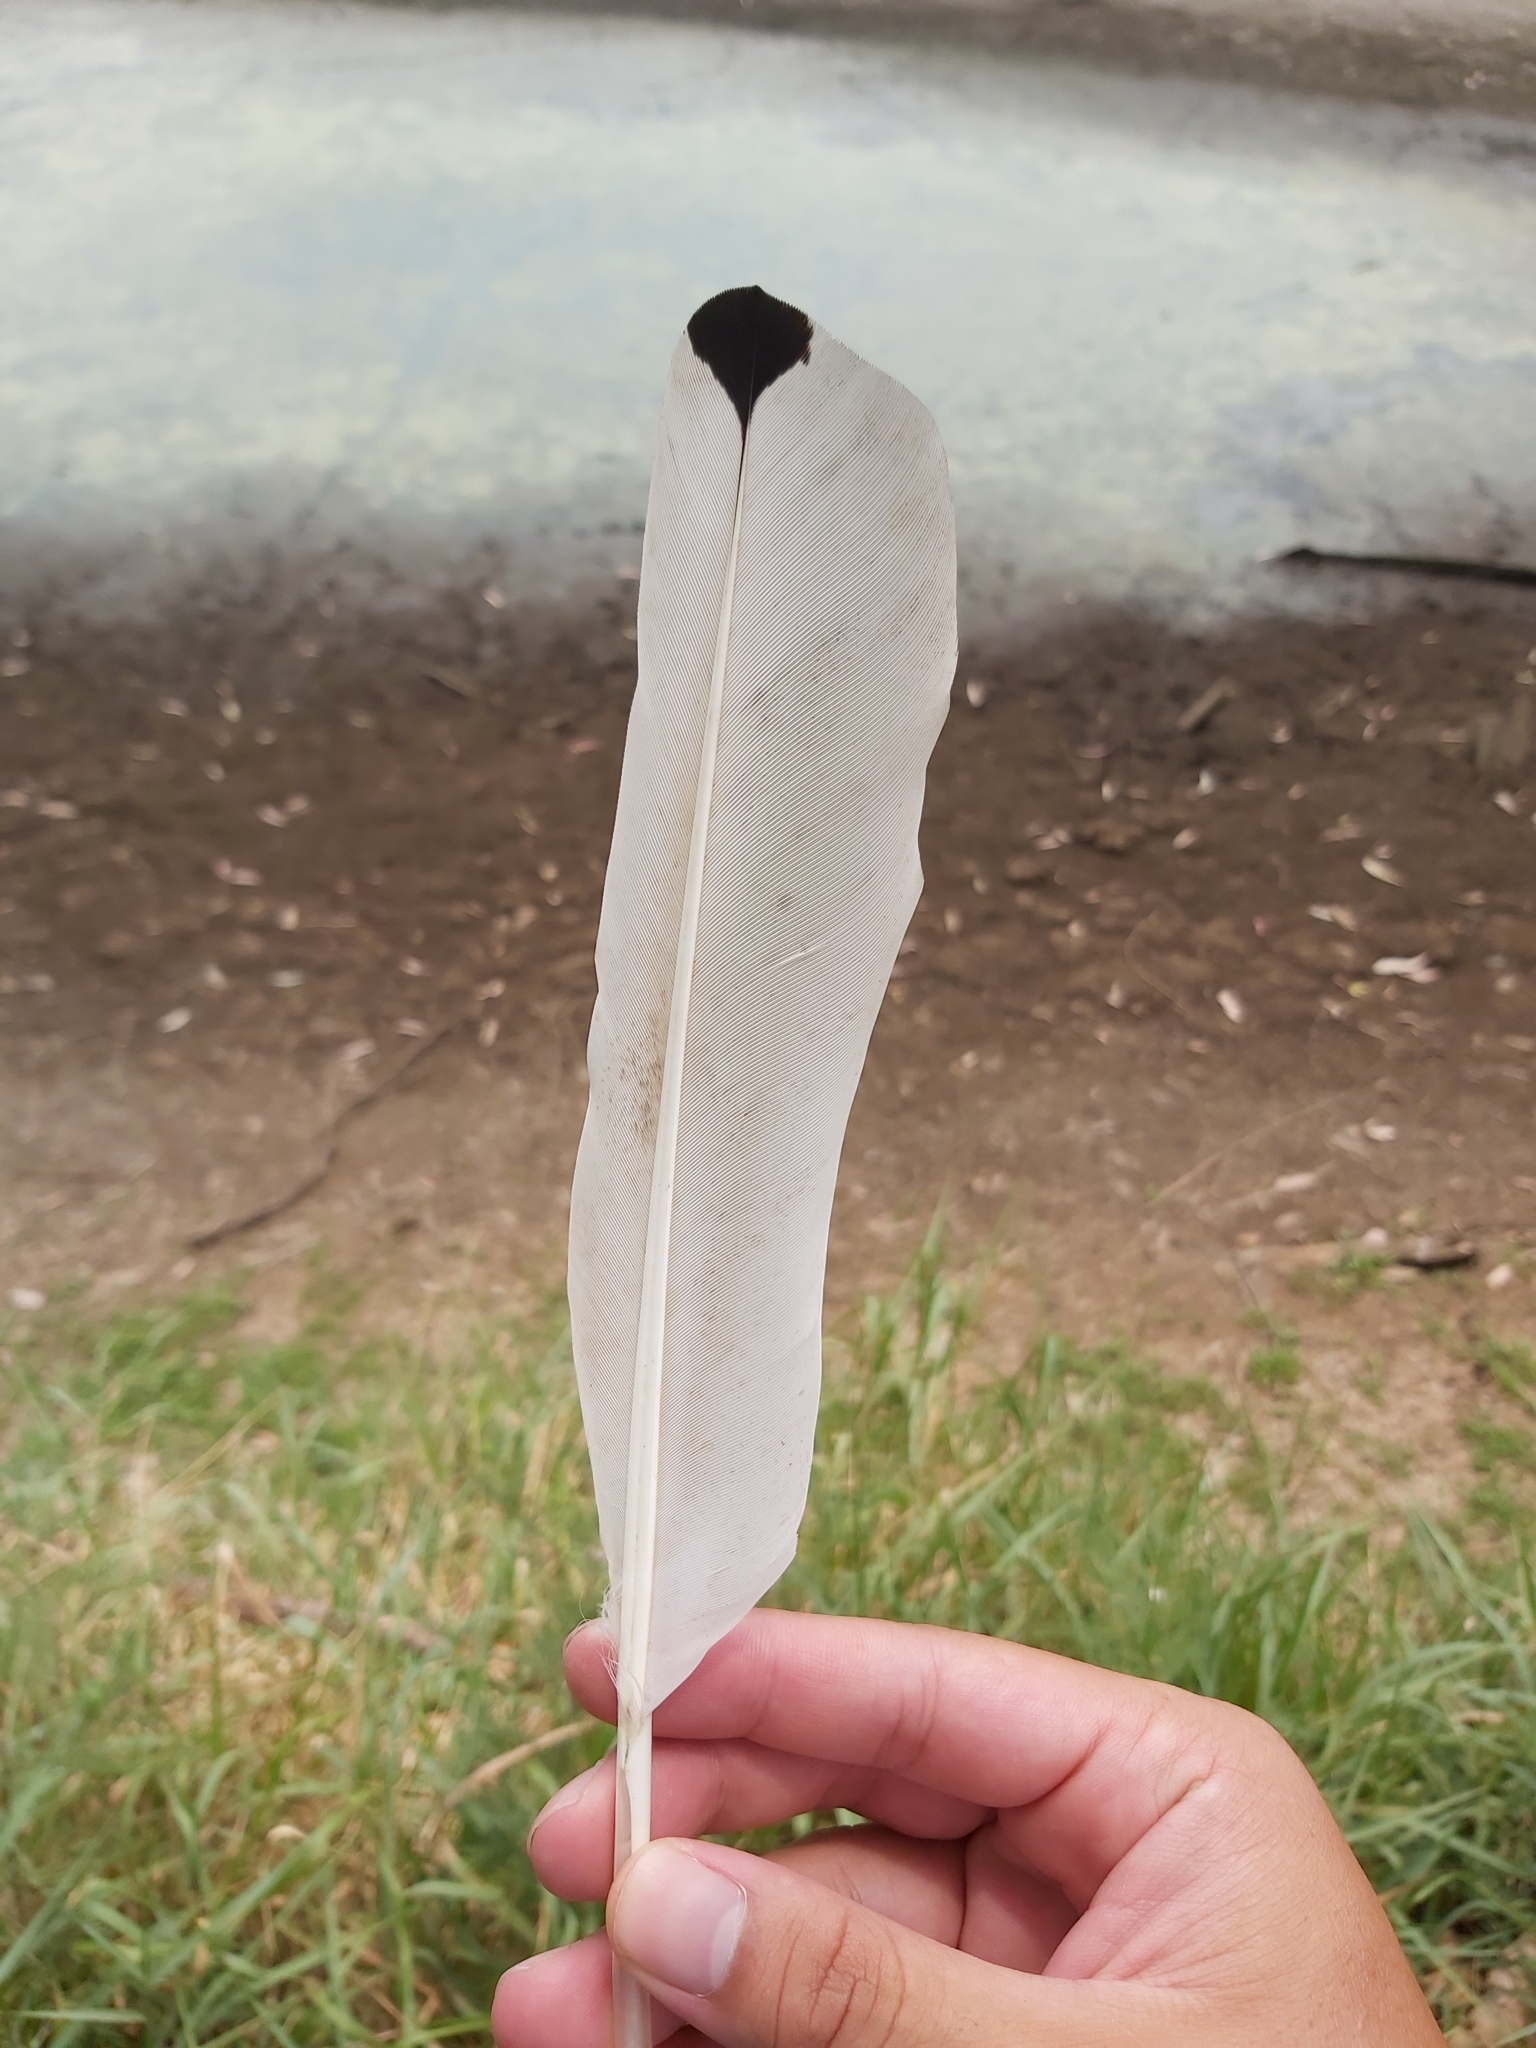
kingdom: Animalia
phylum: Chordata
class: Aves
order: Pelecaniformes
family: Threskiornithidae
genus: Threskiornis
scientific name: Threskiornis molucca
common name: Australian white ibis
